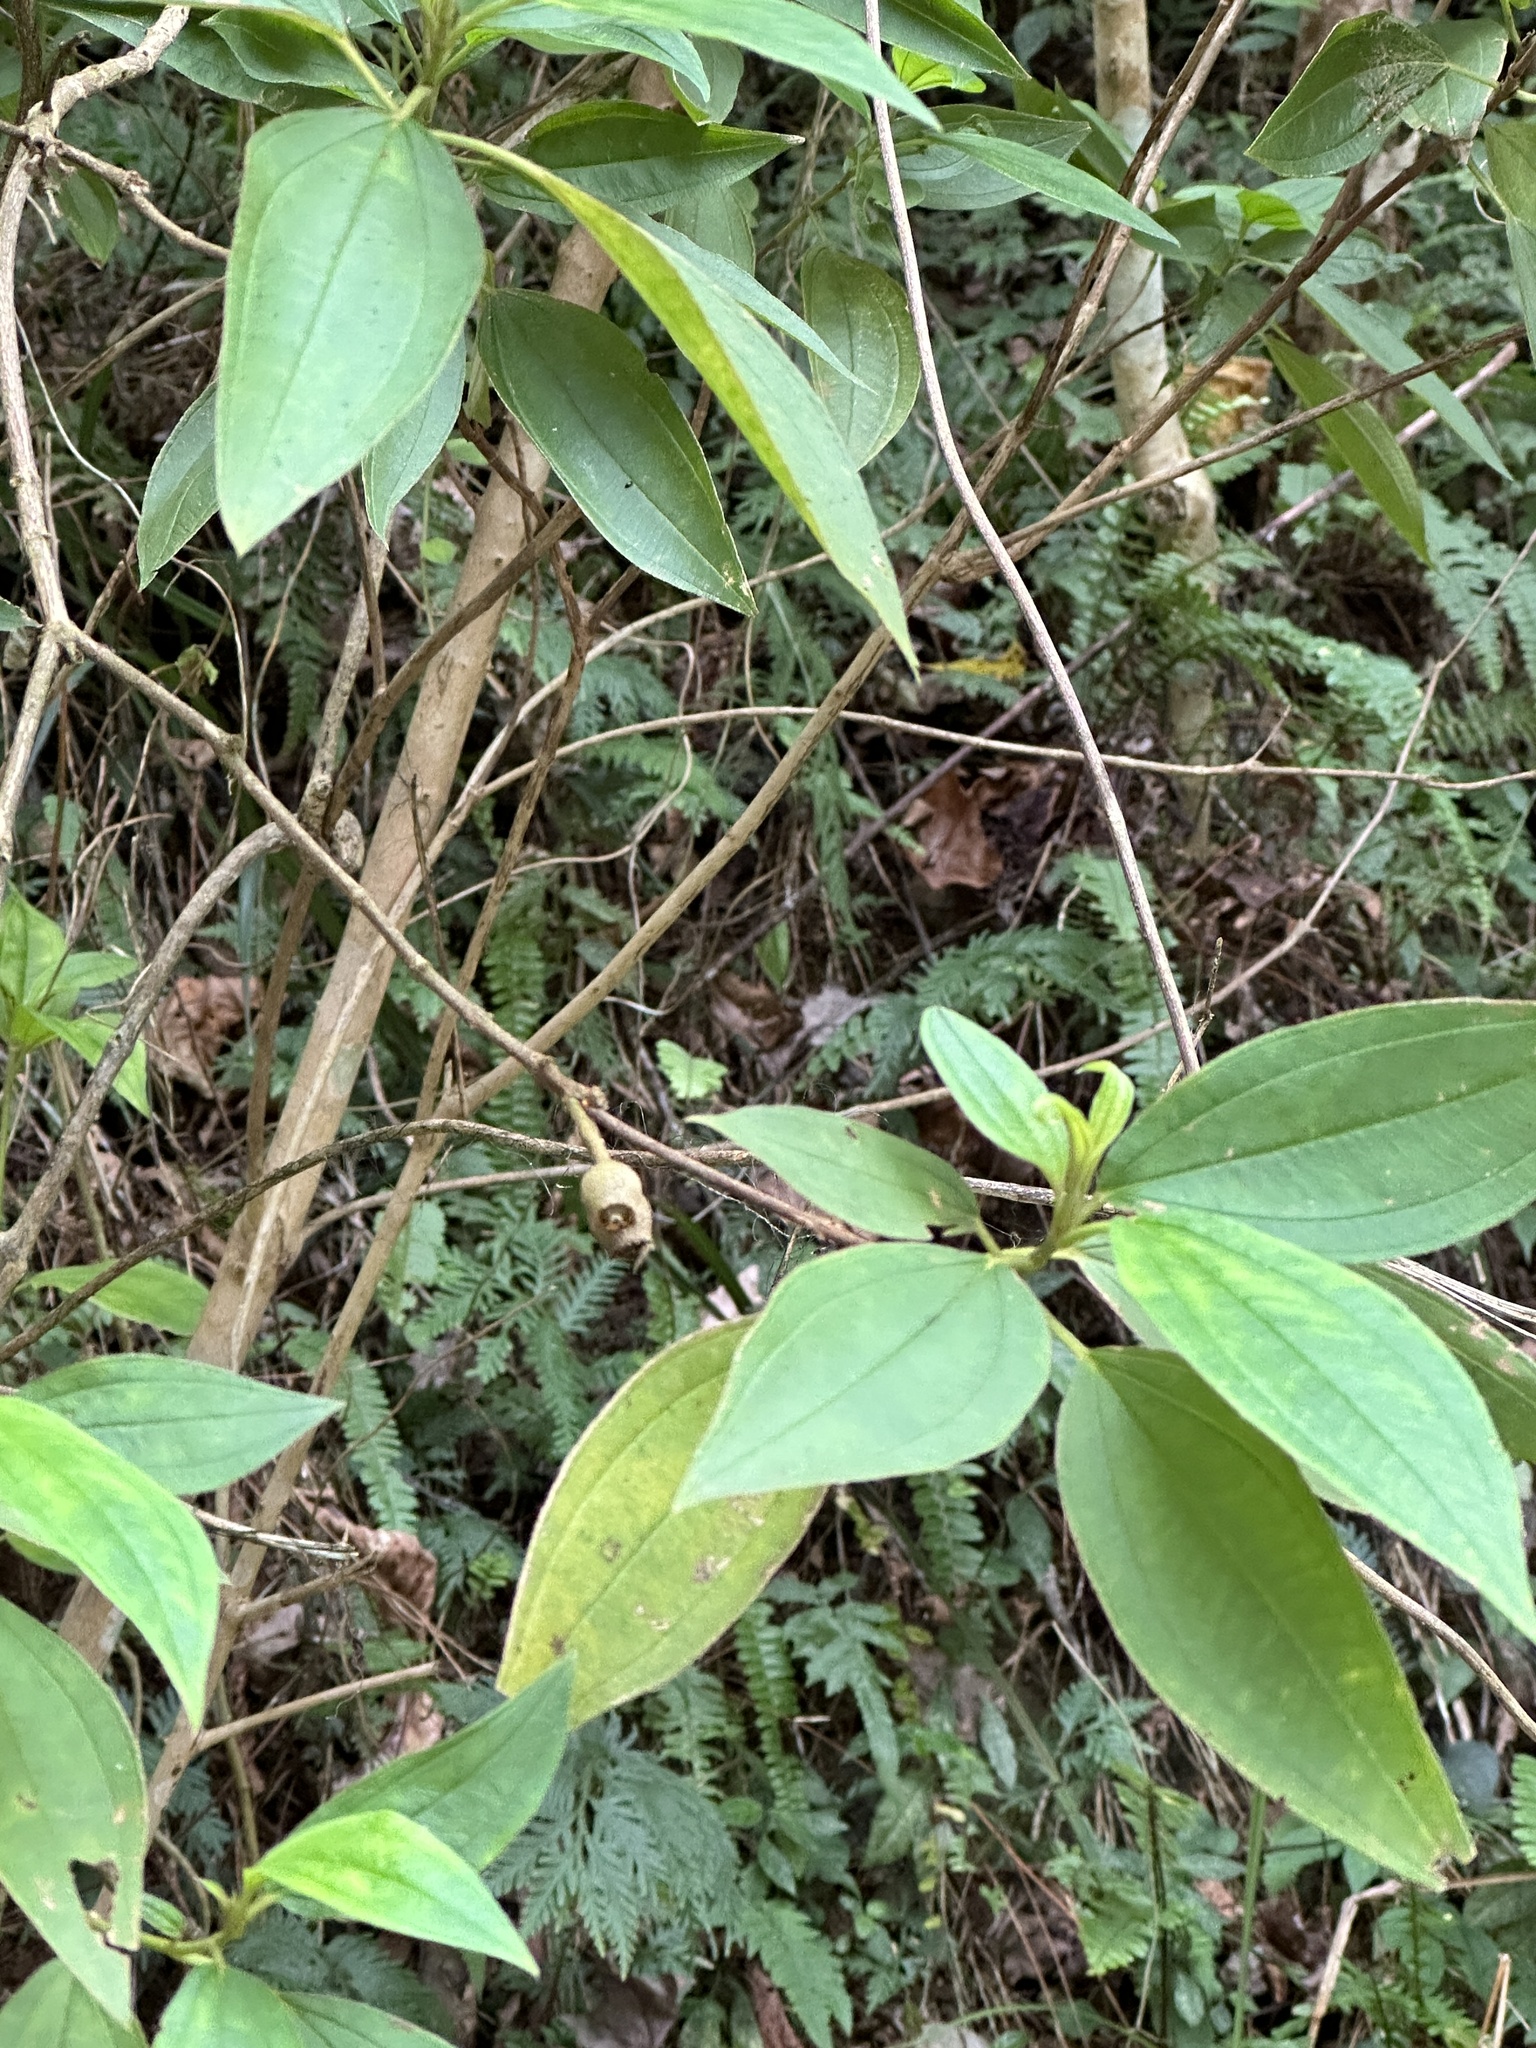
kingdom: Plantae
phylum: Tracheophyta
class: Magnoliopsida
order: Myrtales
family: Melastomataceae
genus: Melastoma
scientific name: Melastoma malabathricum
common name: Indian-rhododendron
